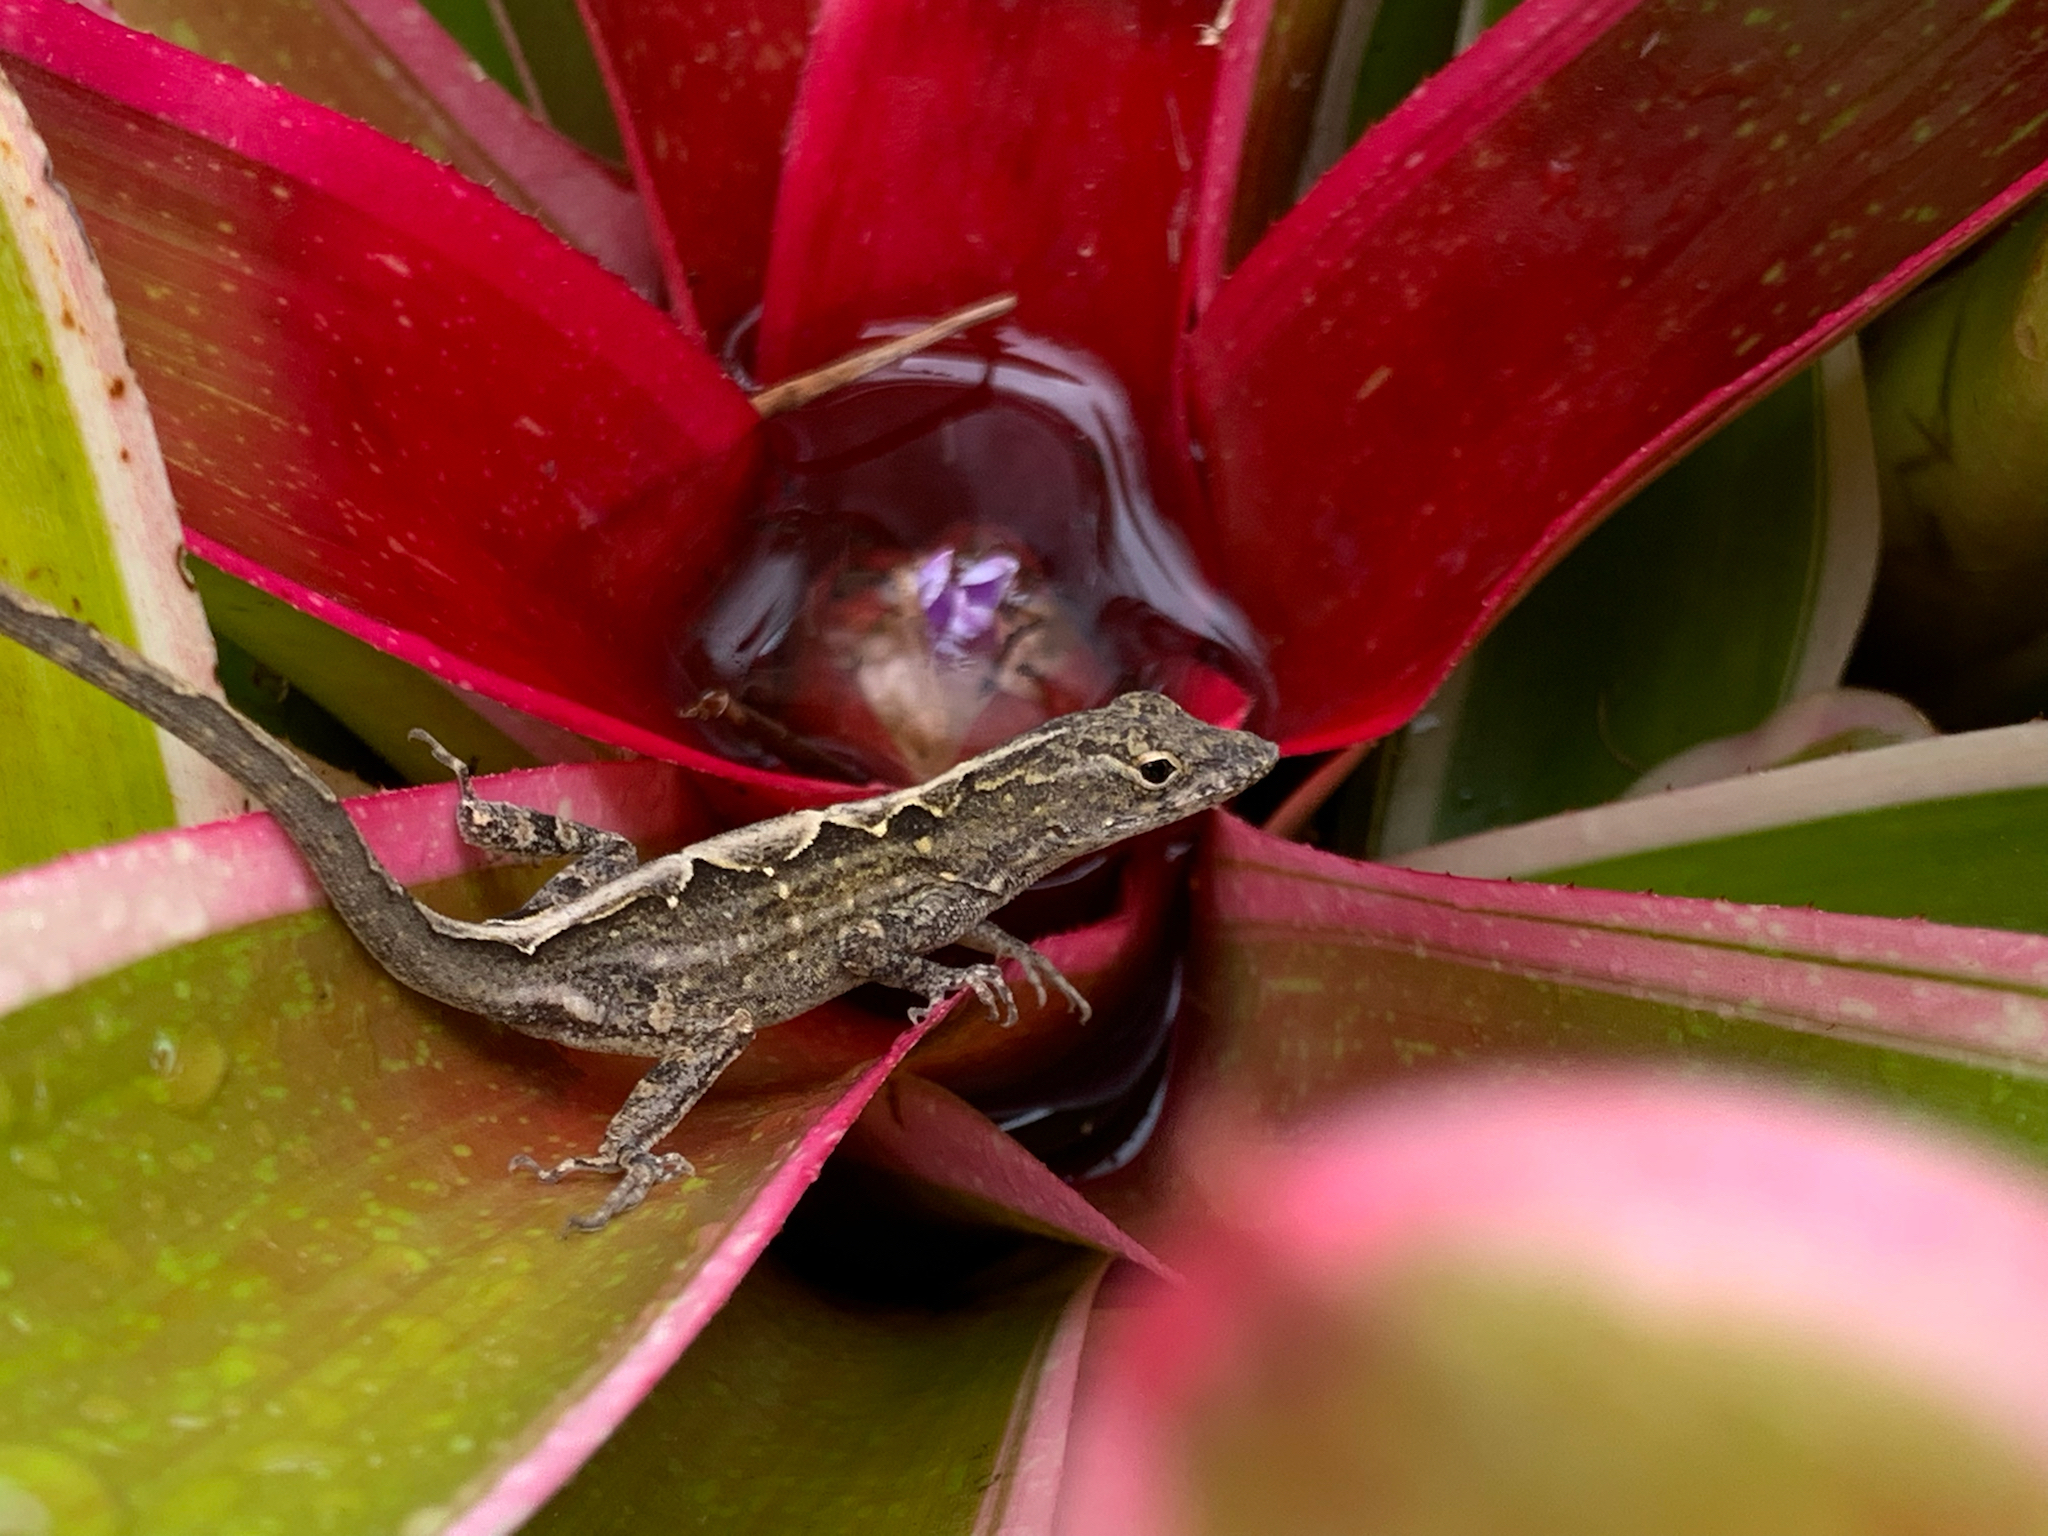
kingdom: Animalia
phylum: Chordata
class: Squamata
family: Dactyloidae
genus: Anolis
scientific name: Anolis sagrei
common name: Brown anole
